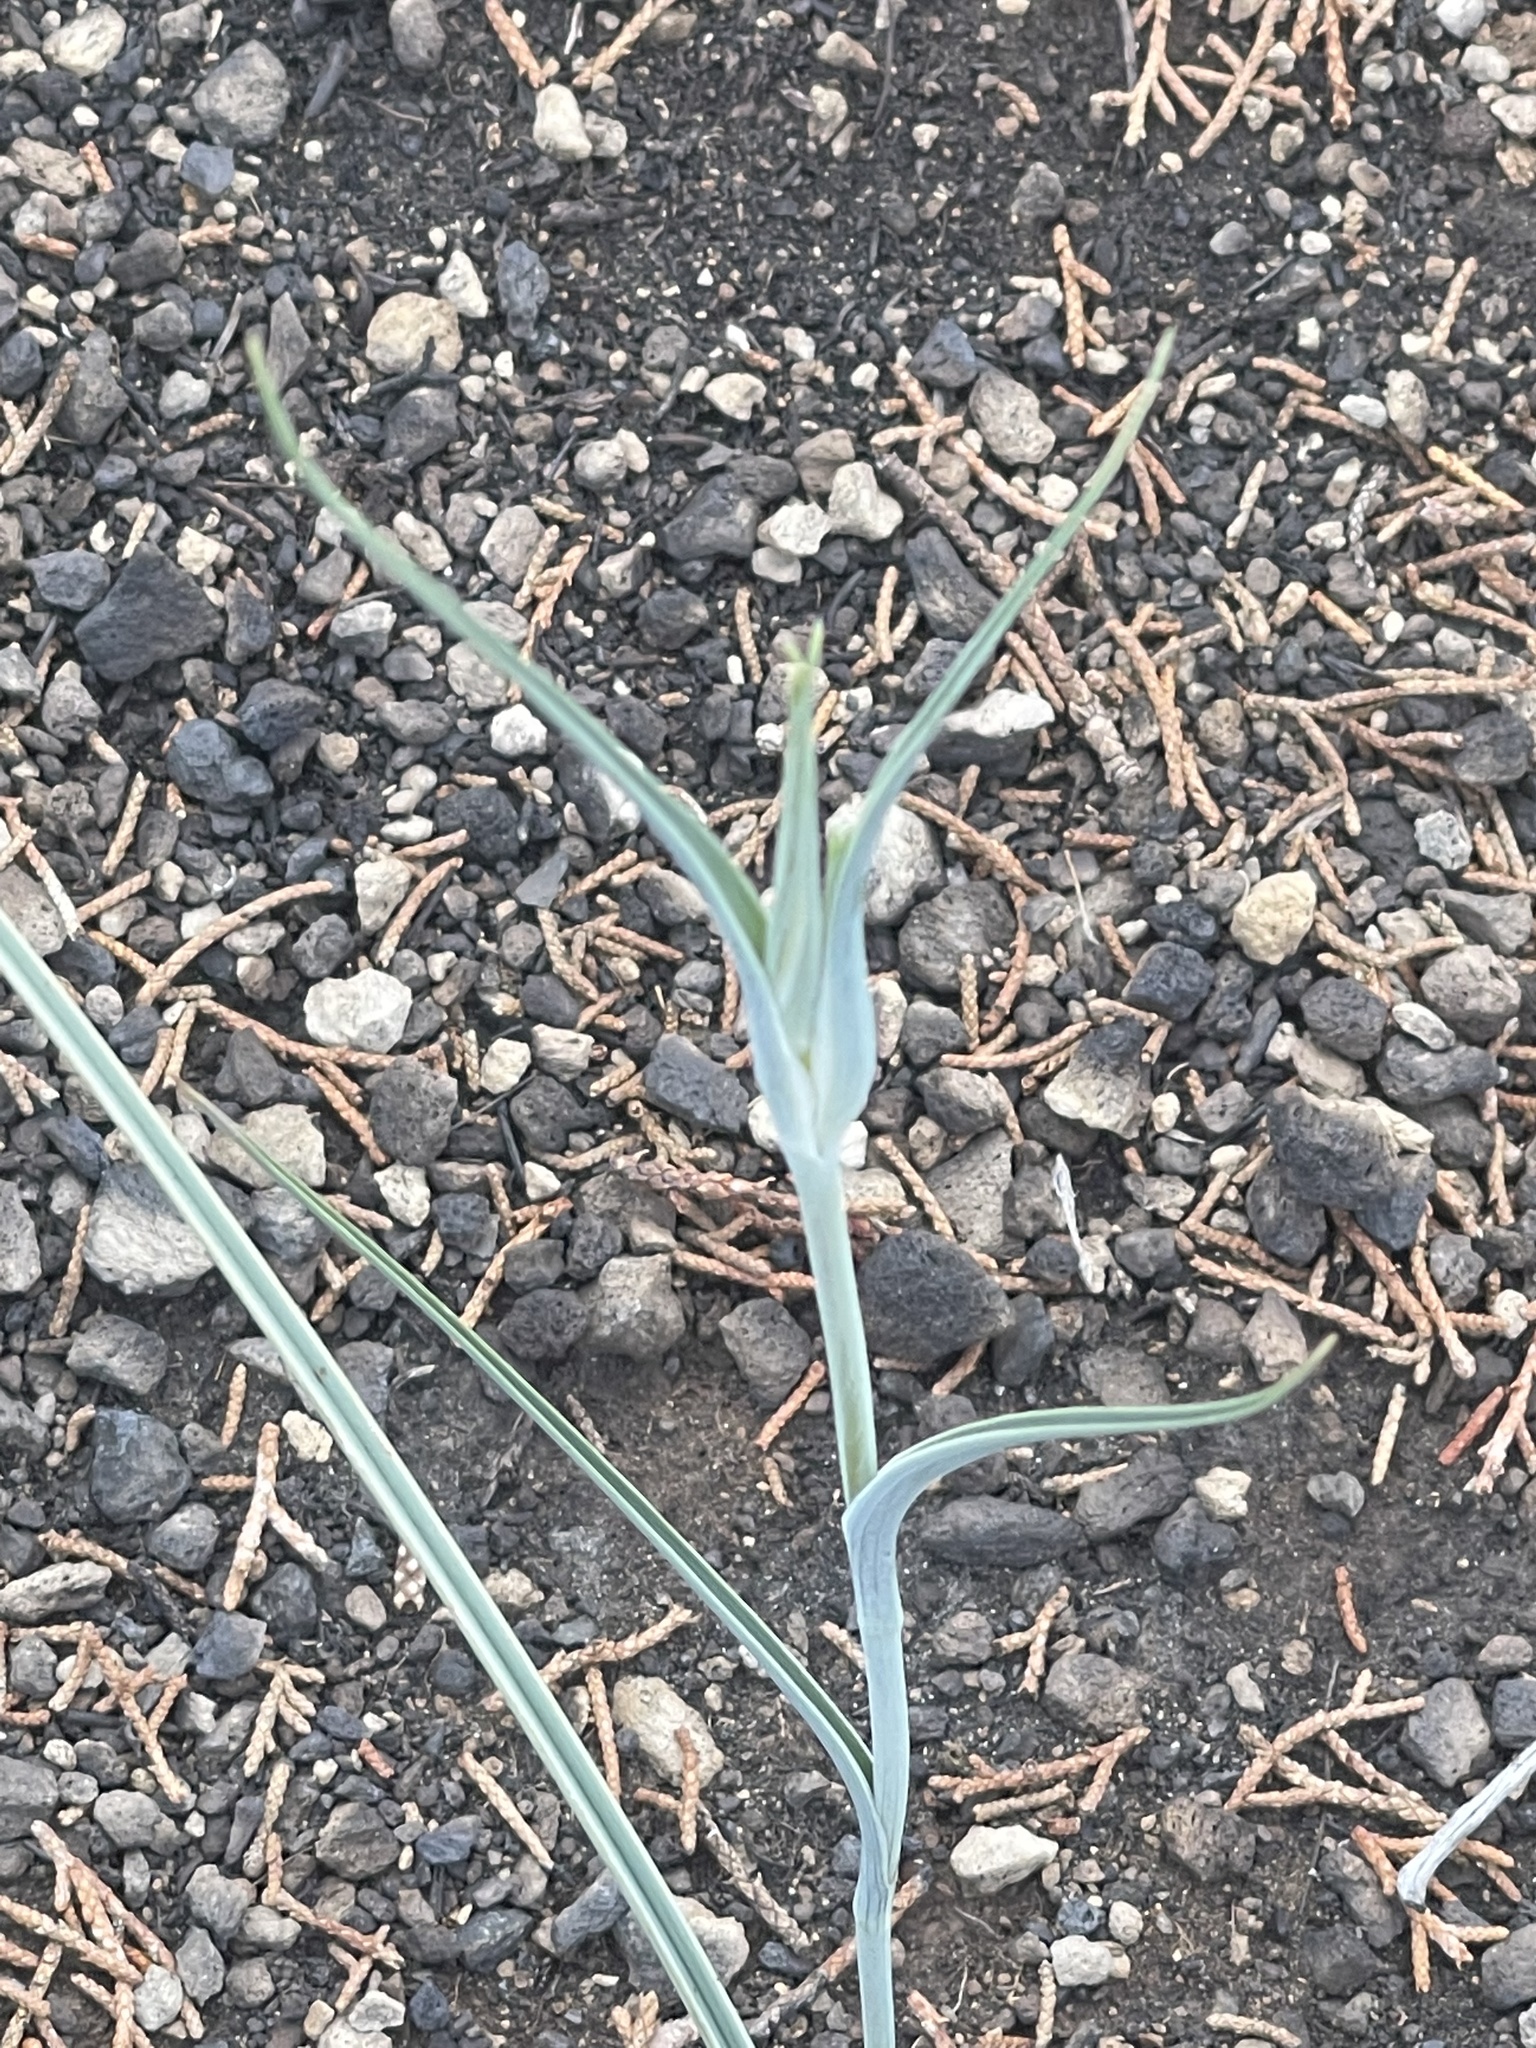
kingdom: Plantae
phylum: Tracheophyta
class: Liliopsida
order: Liliales
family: Liliaceae
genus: Calochortus
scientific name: Calochortus macrocarpus
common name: Green-band mariposa lily
